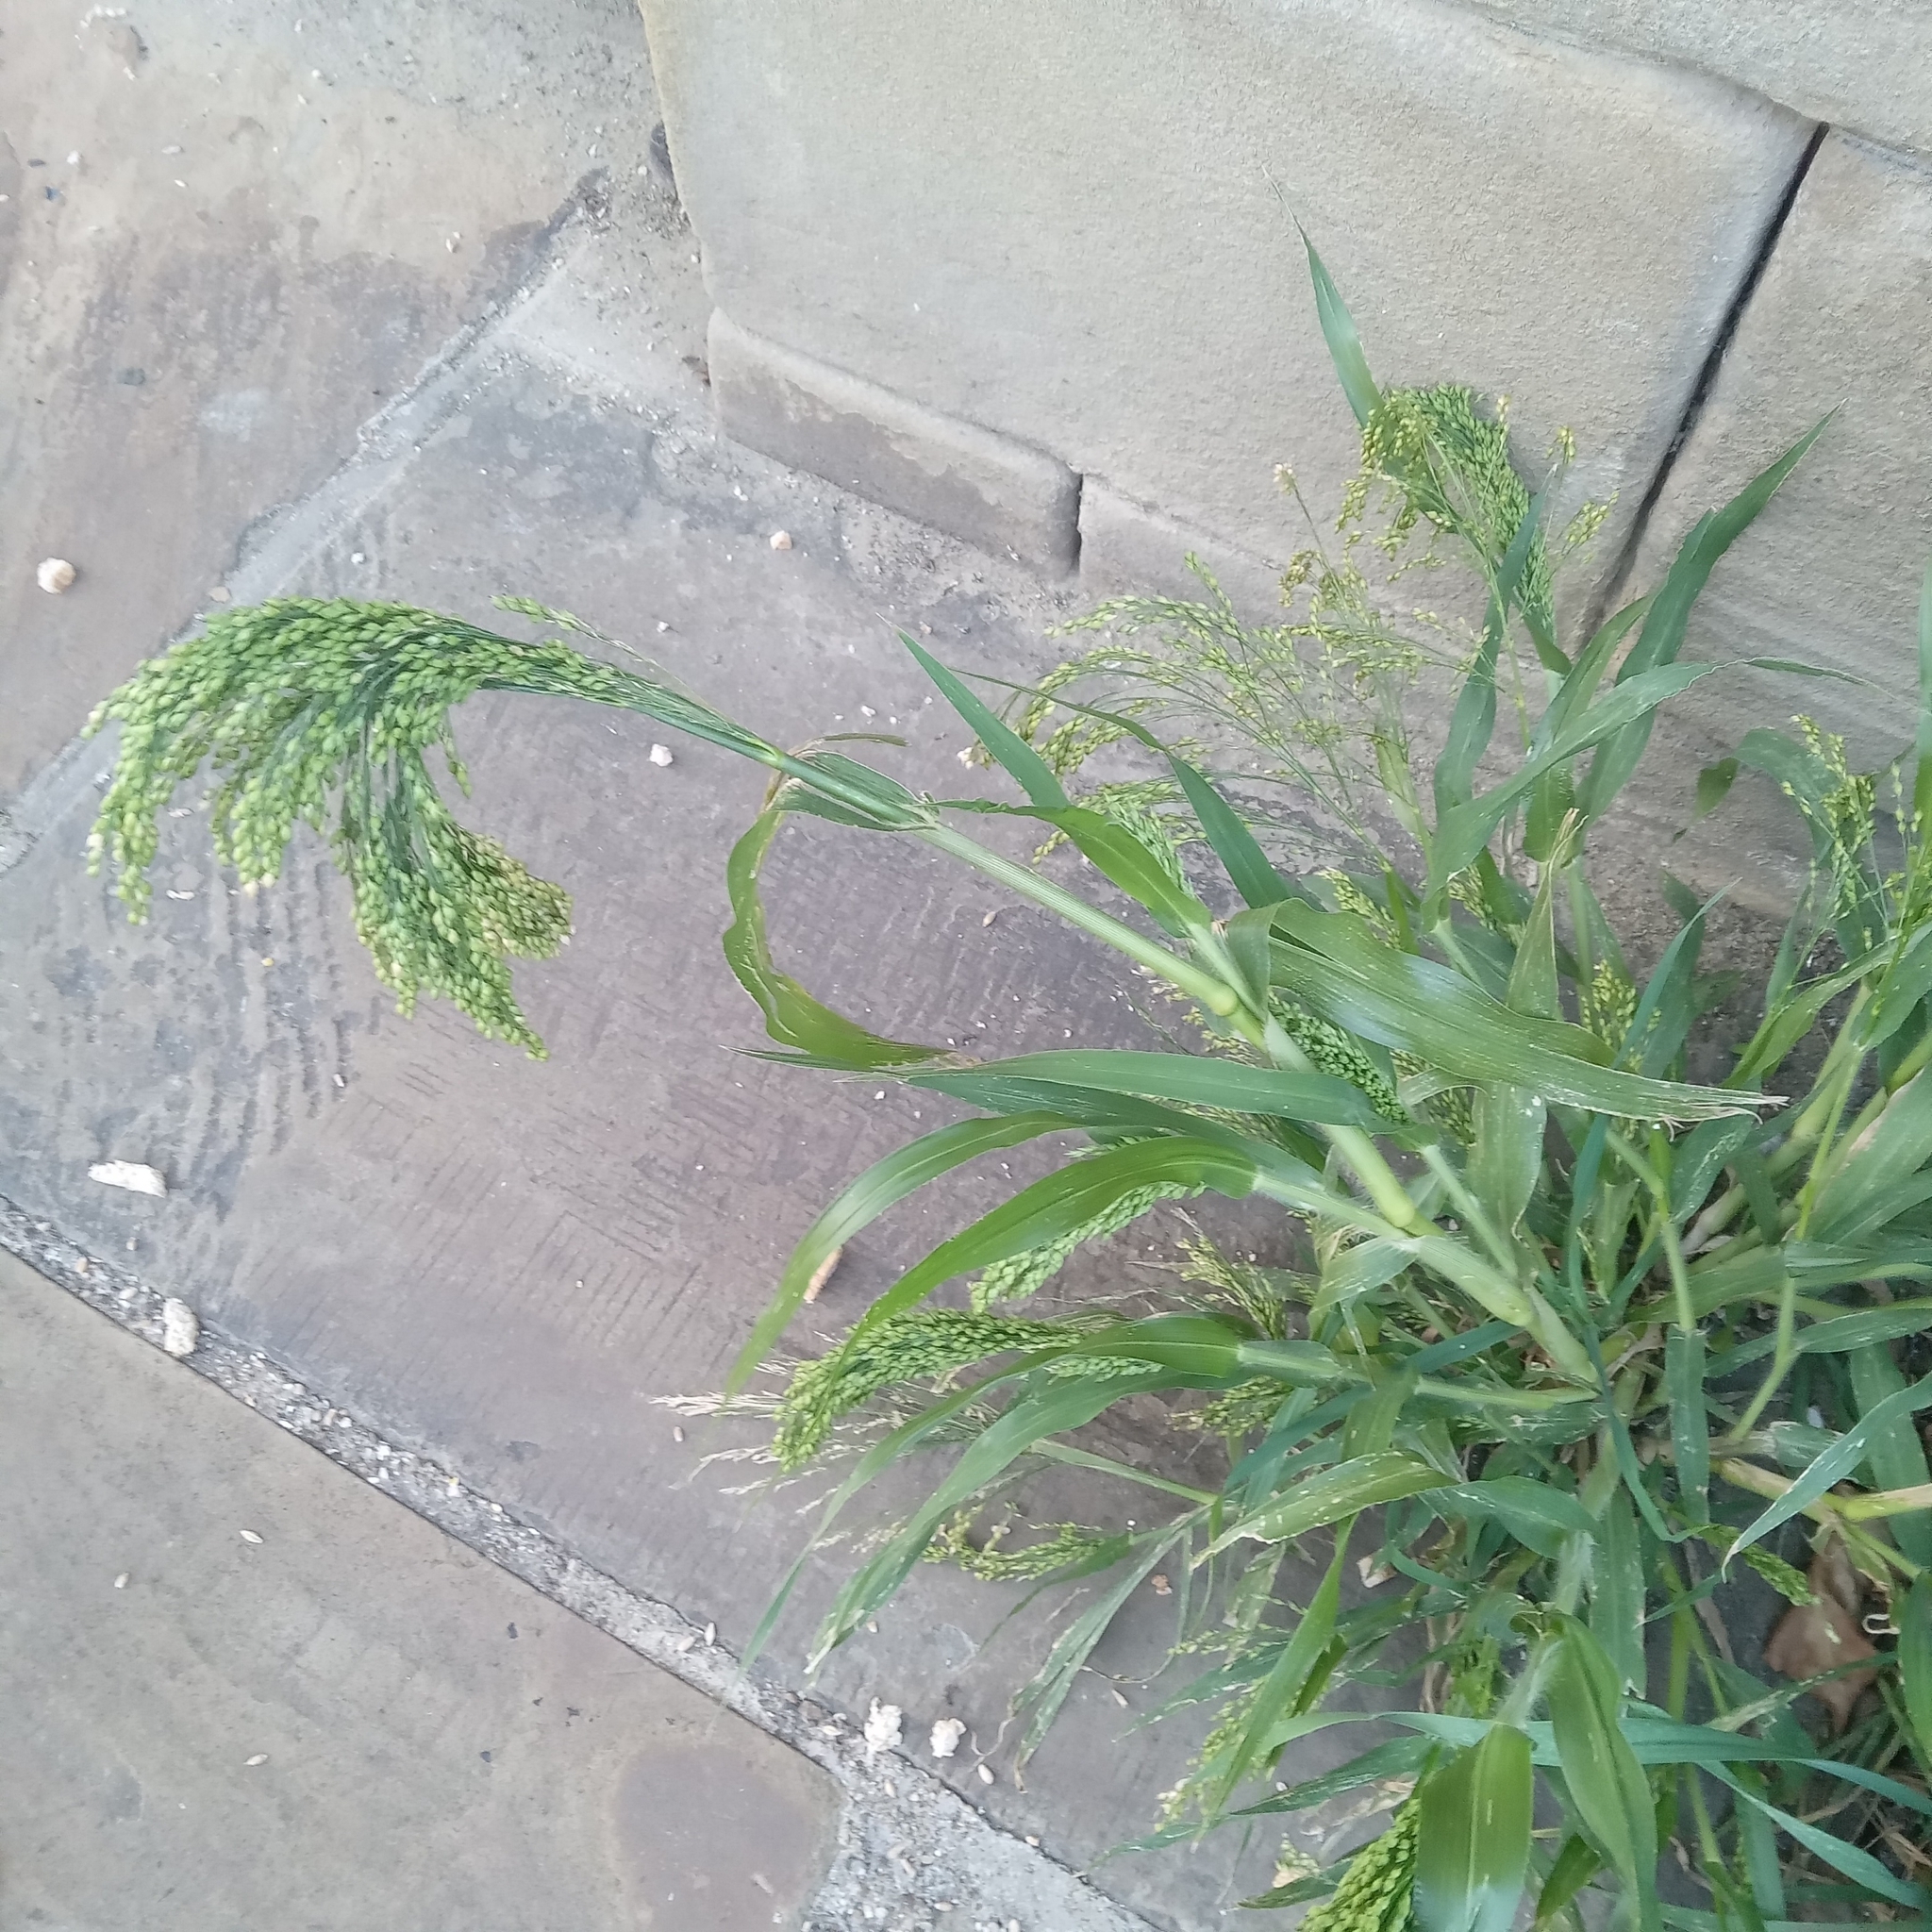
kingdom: Plantae
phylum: Tracheophyta
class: Liliopsida
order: Poales
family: Poaceae
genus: Panicum
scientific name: Panicum miliaceum
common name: Common millet
